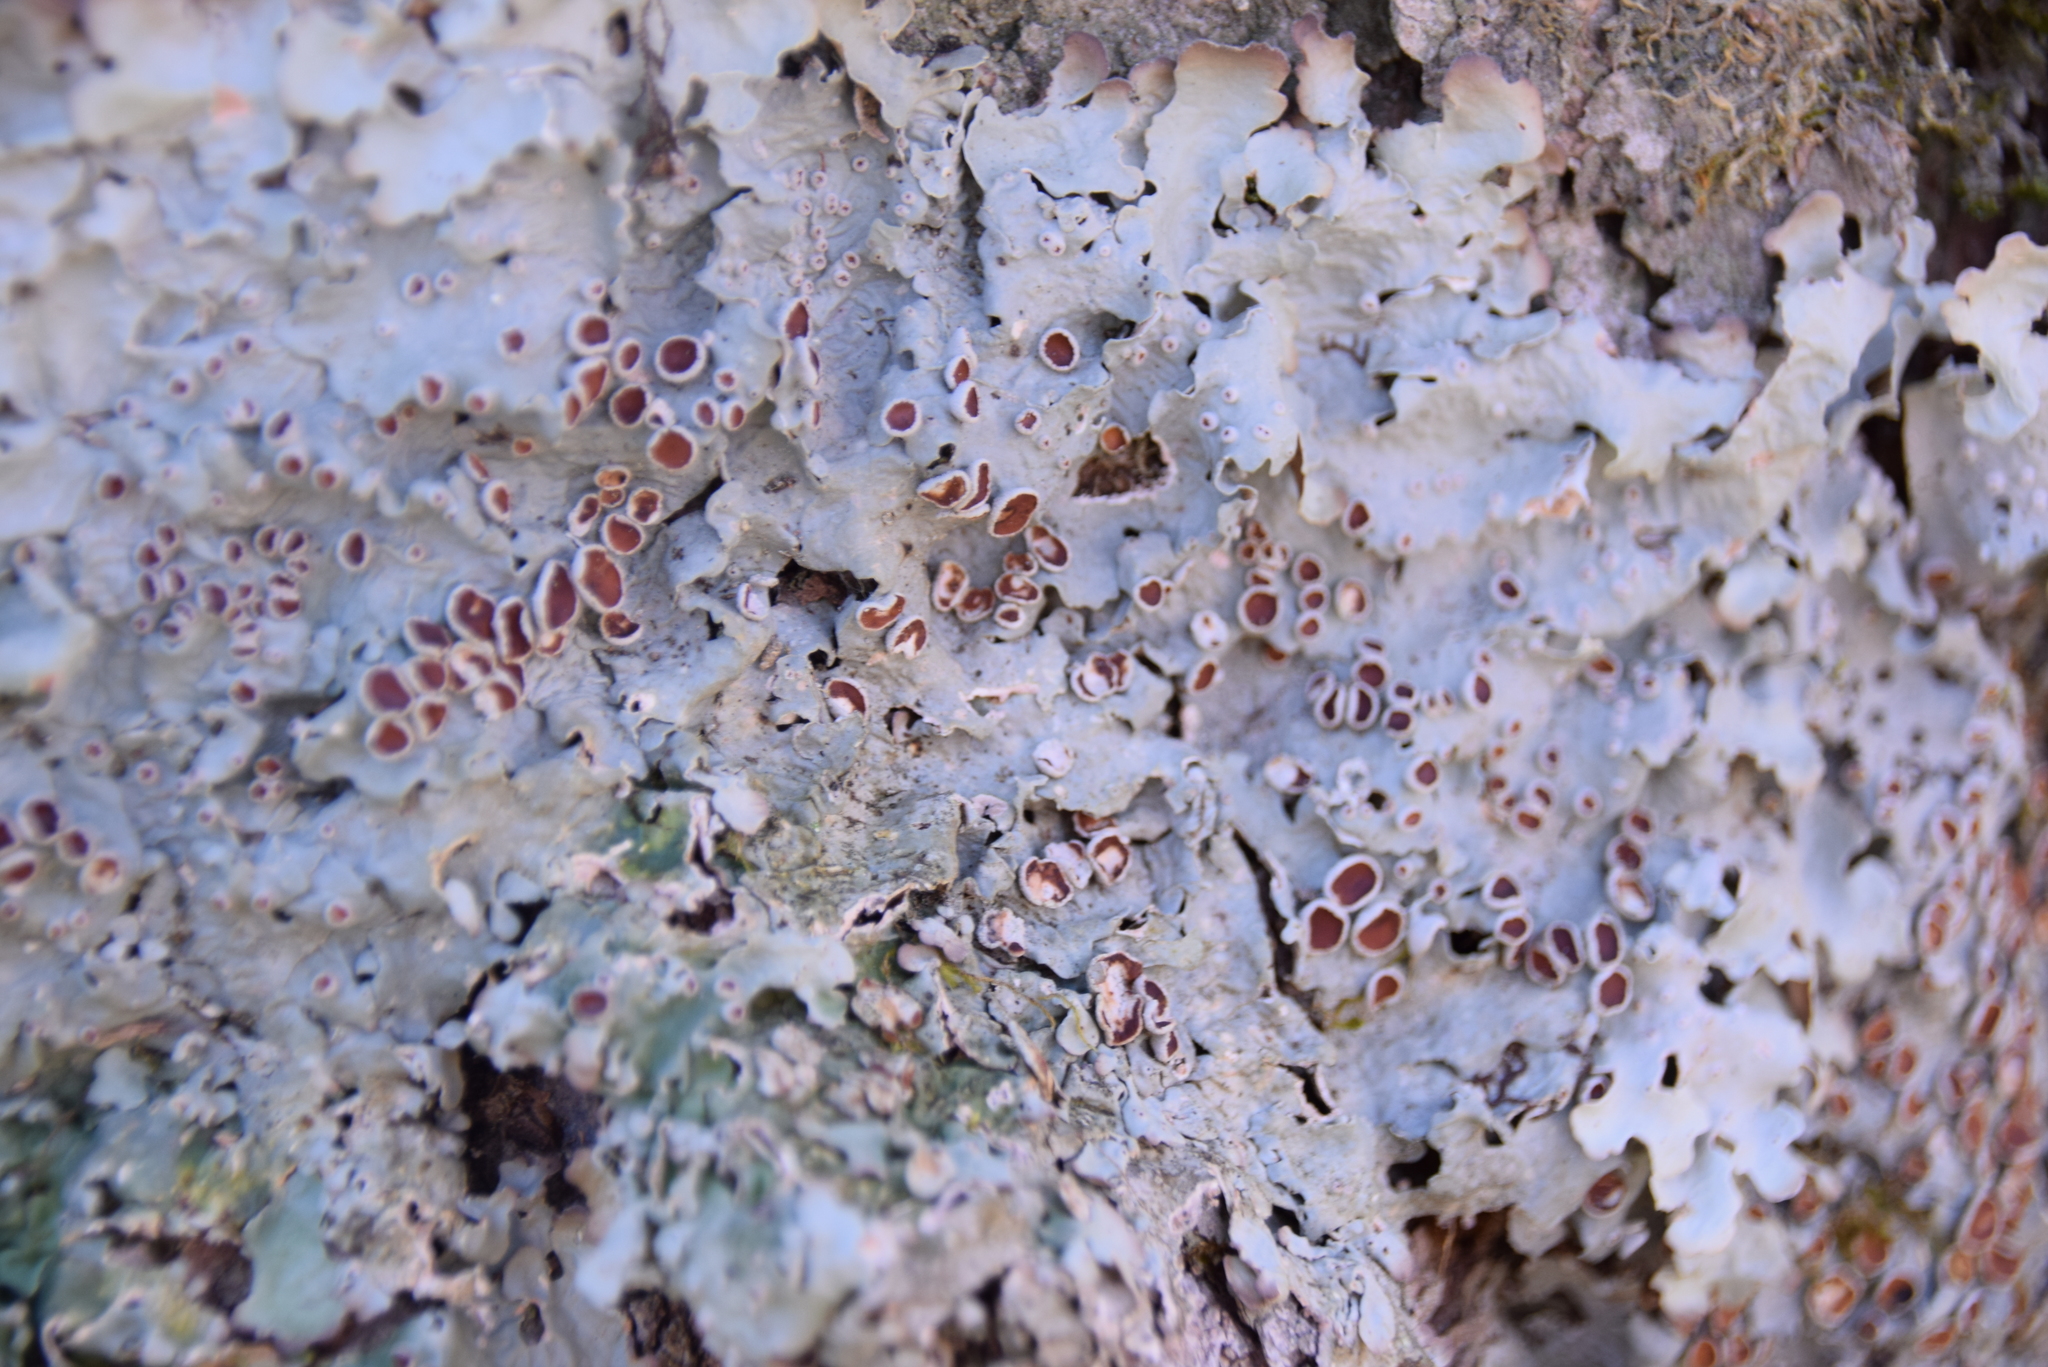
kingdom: Fungi
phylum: Ascomycota
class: Lecanoromycetes
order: Peltigerales
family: Lobariaceae
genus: Ricasolia
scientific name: Ricasolia quercizans
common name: Smooth lungwort
